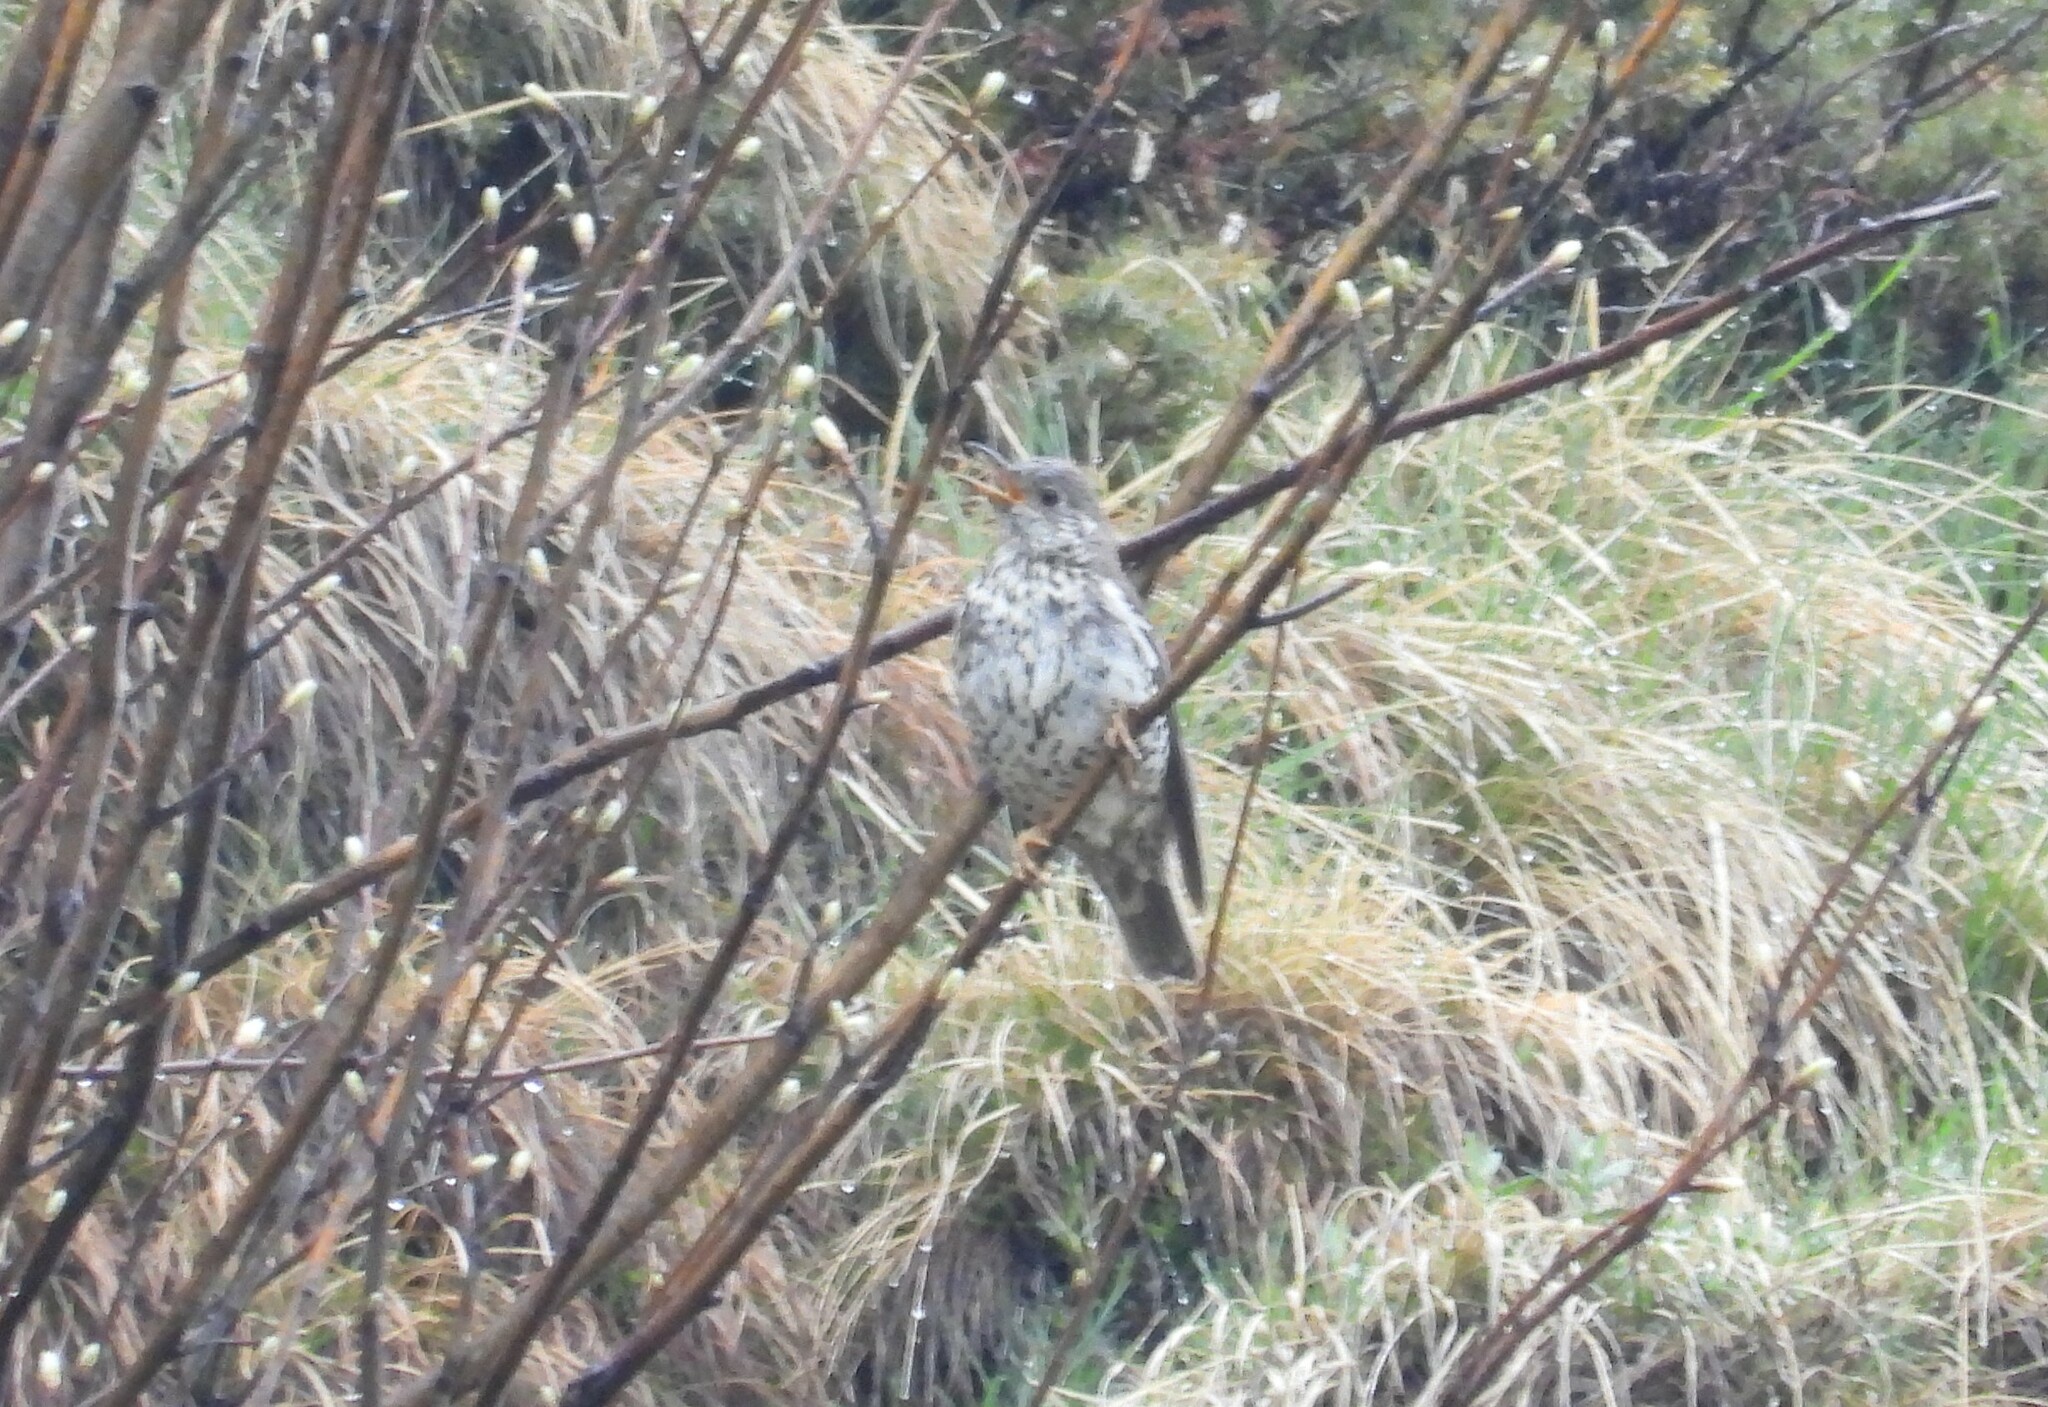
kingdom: Animalia
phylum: Chordata
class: Aves
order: Passeriformes
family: Turdidae
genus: Turdus
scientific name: Turdus viscivorus
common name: Mistle thrush
